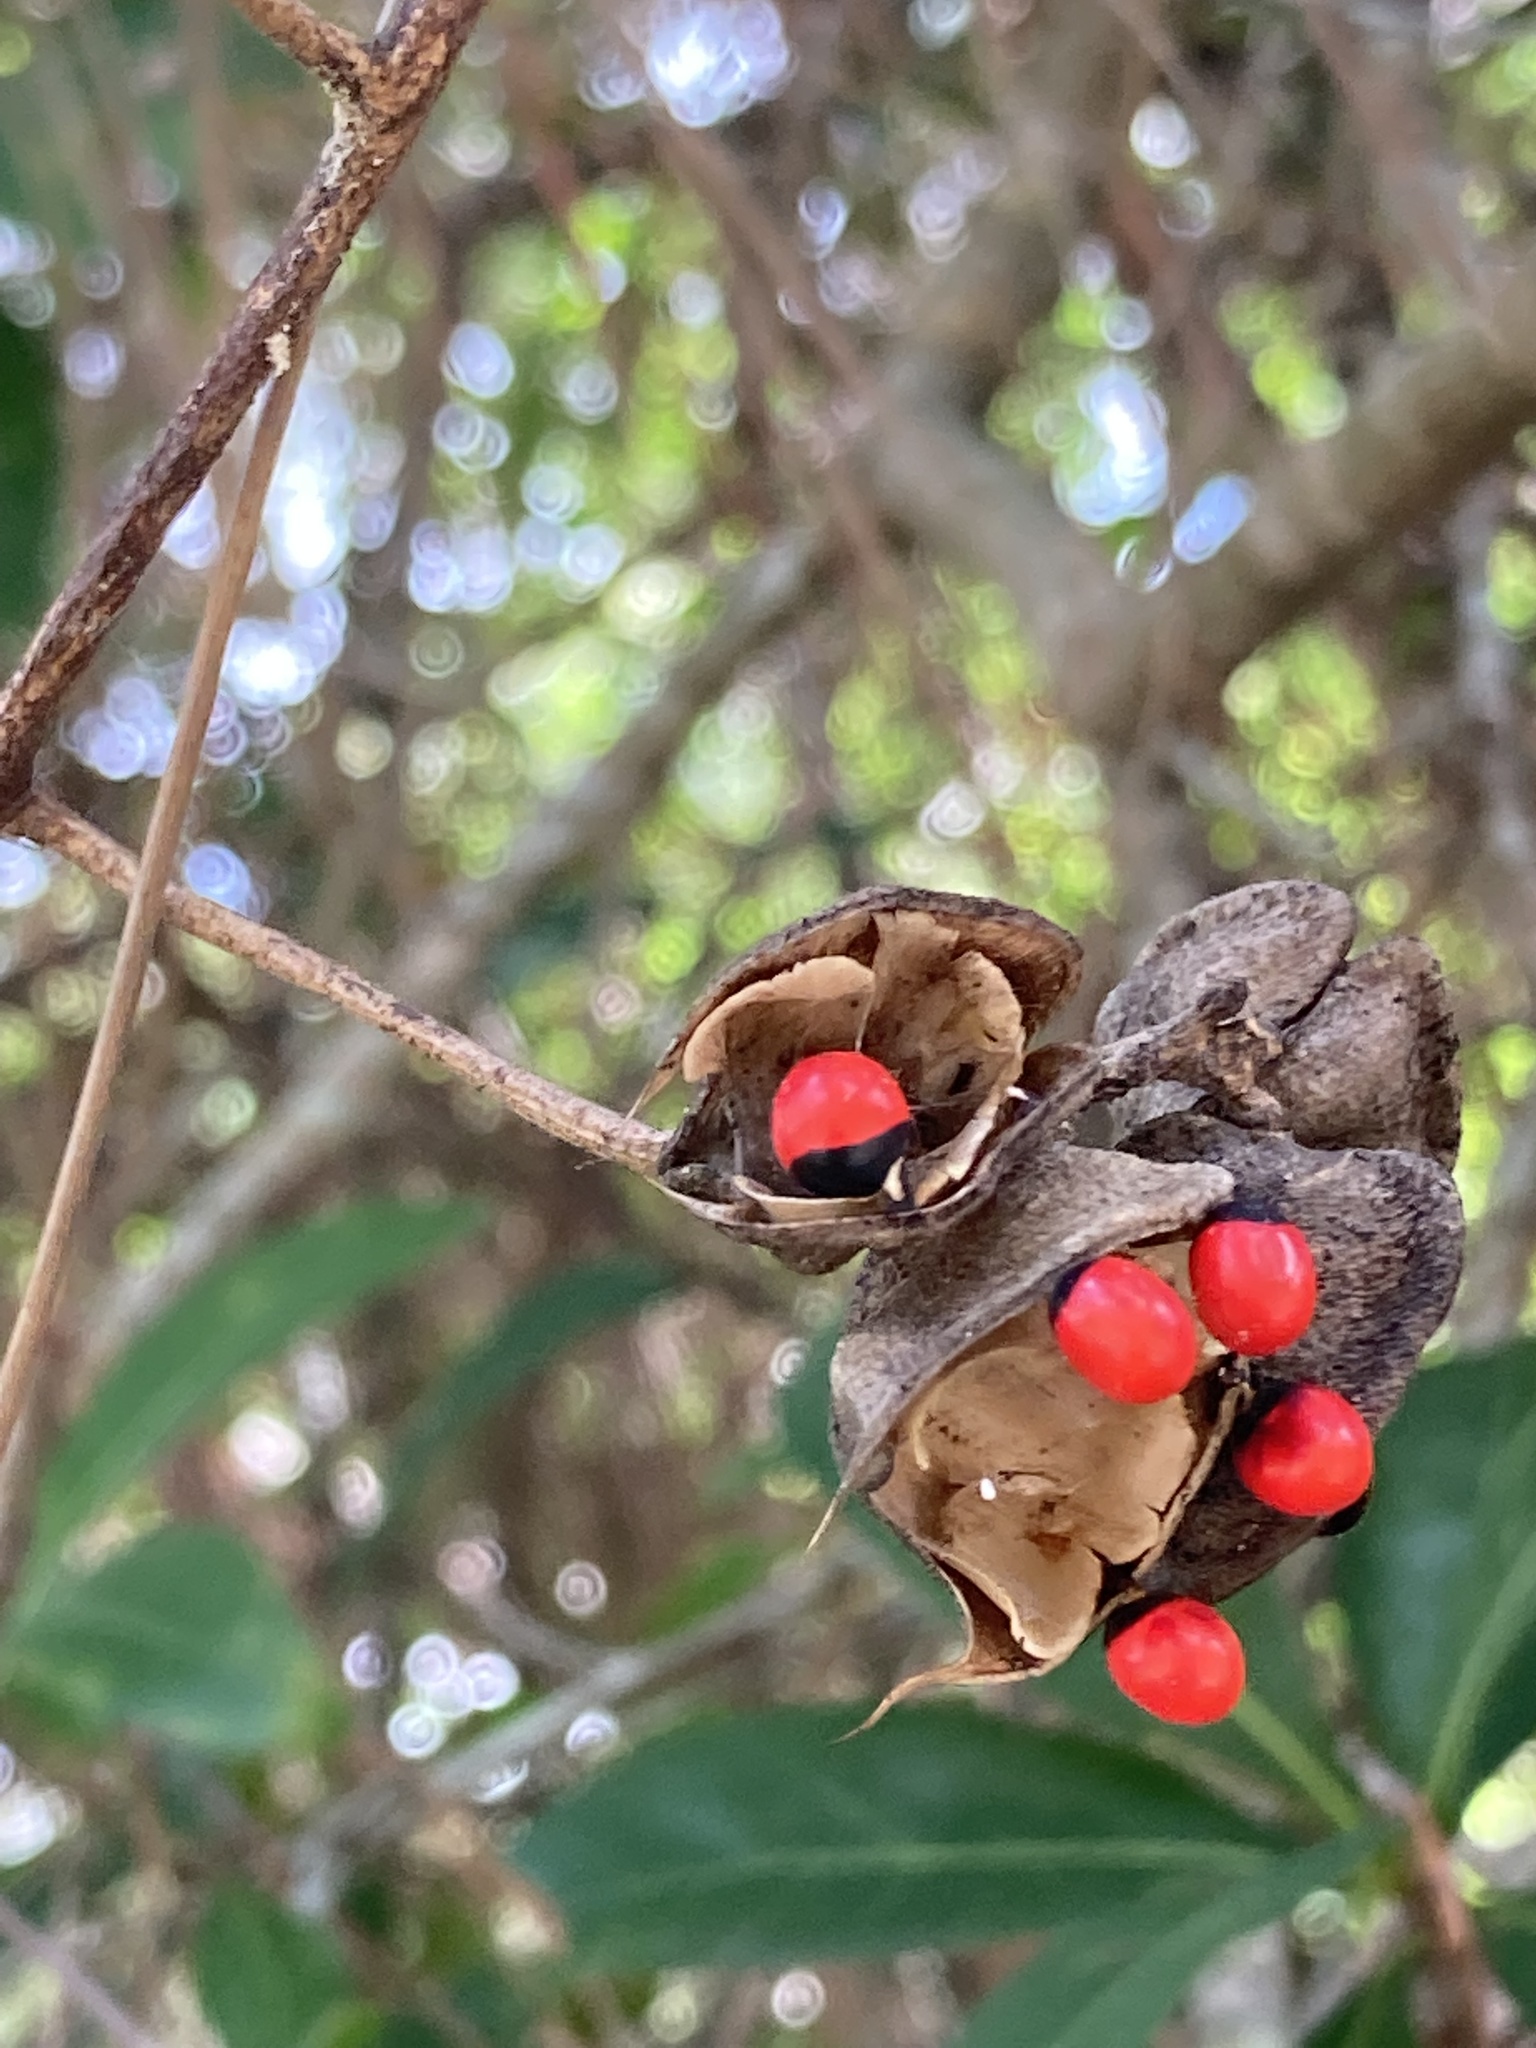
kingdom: Plantae
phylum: Tracheophyta
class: Magnoliopsida
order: Fabales
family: Fabaceae
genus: Abrus
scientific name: Abrus precatorius
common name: Rosarypea
